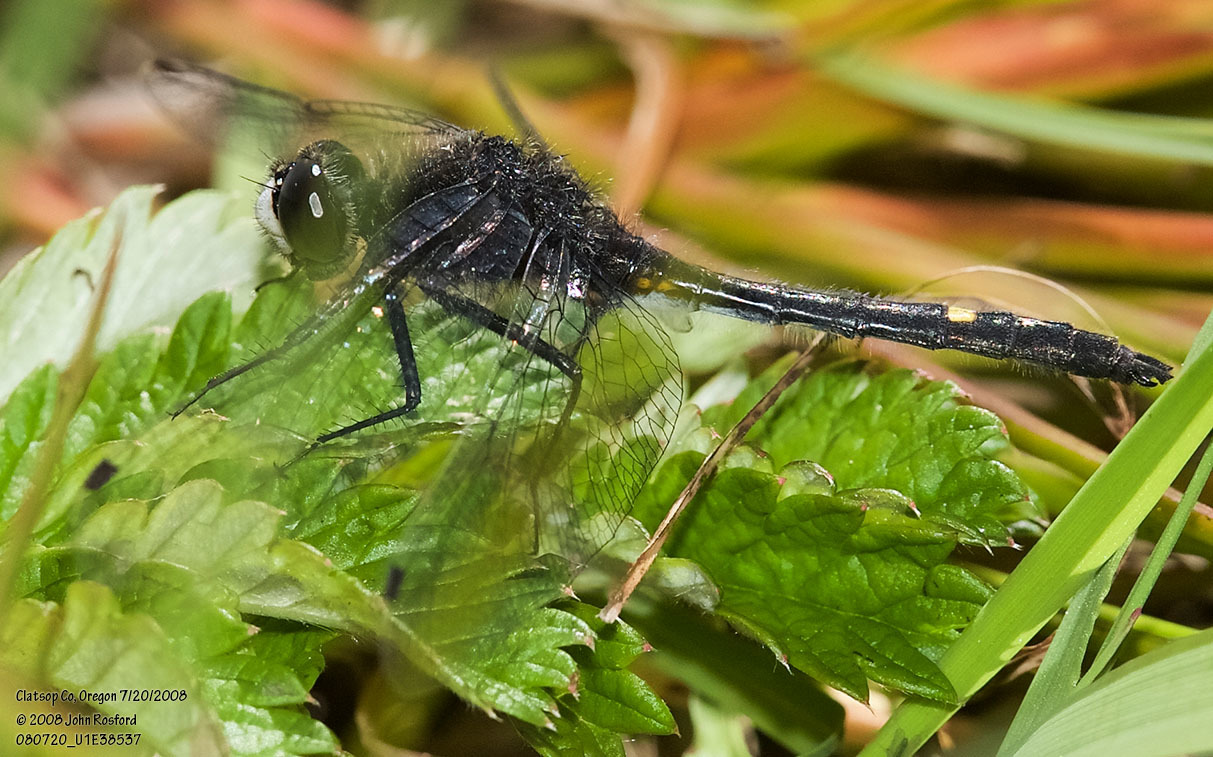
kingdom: Animalia
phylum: Arthropoda
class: Insecta
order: Odonata
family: Libellulidae
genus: Leucorrhinia
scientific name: Leucorrhinia intacta
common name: Dot-tailed whiteface
